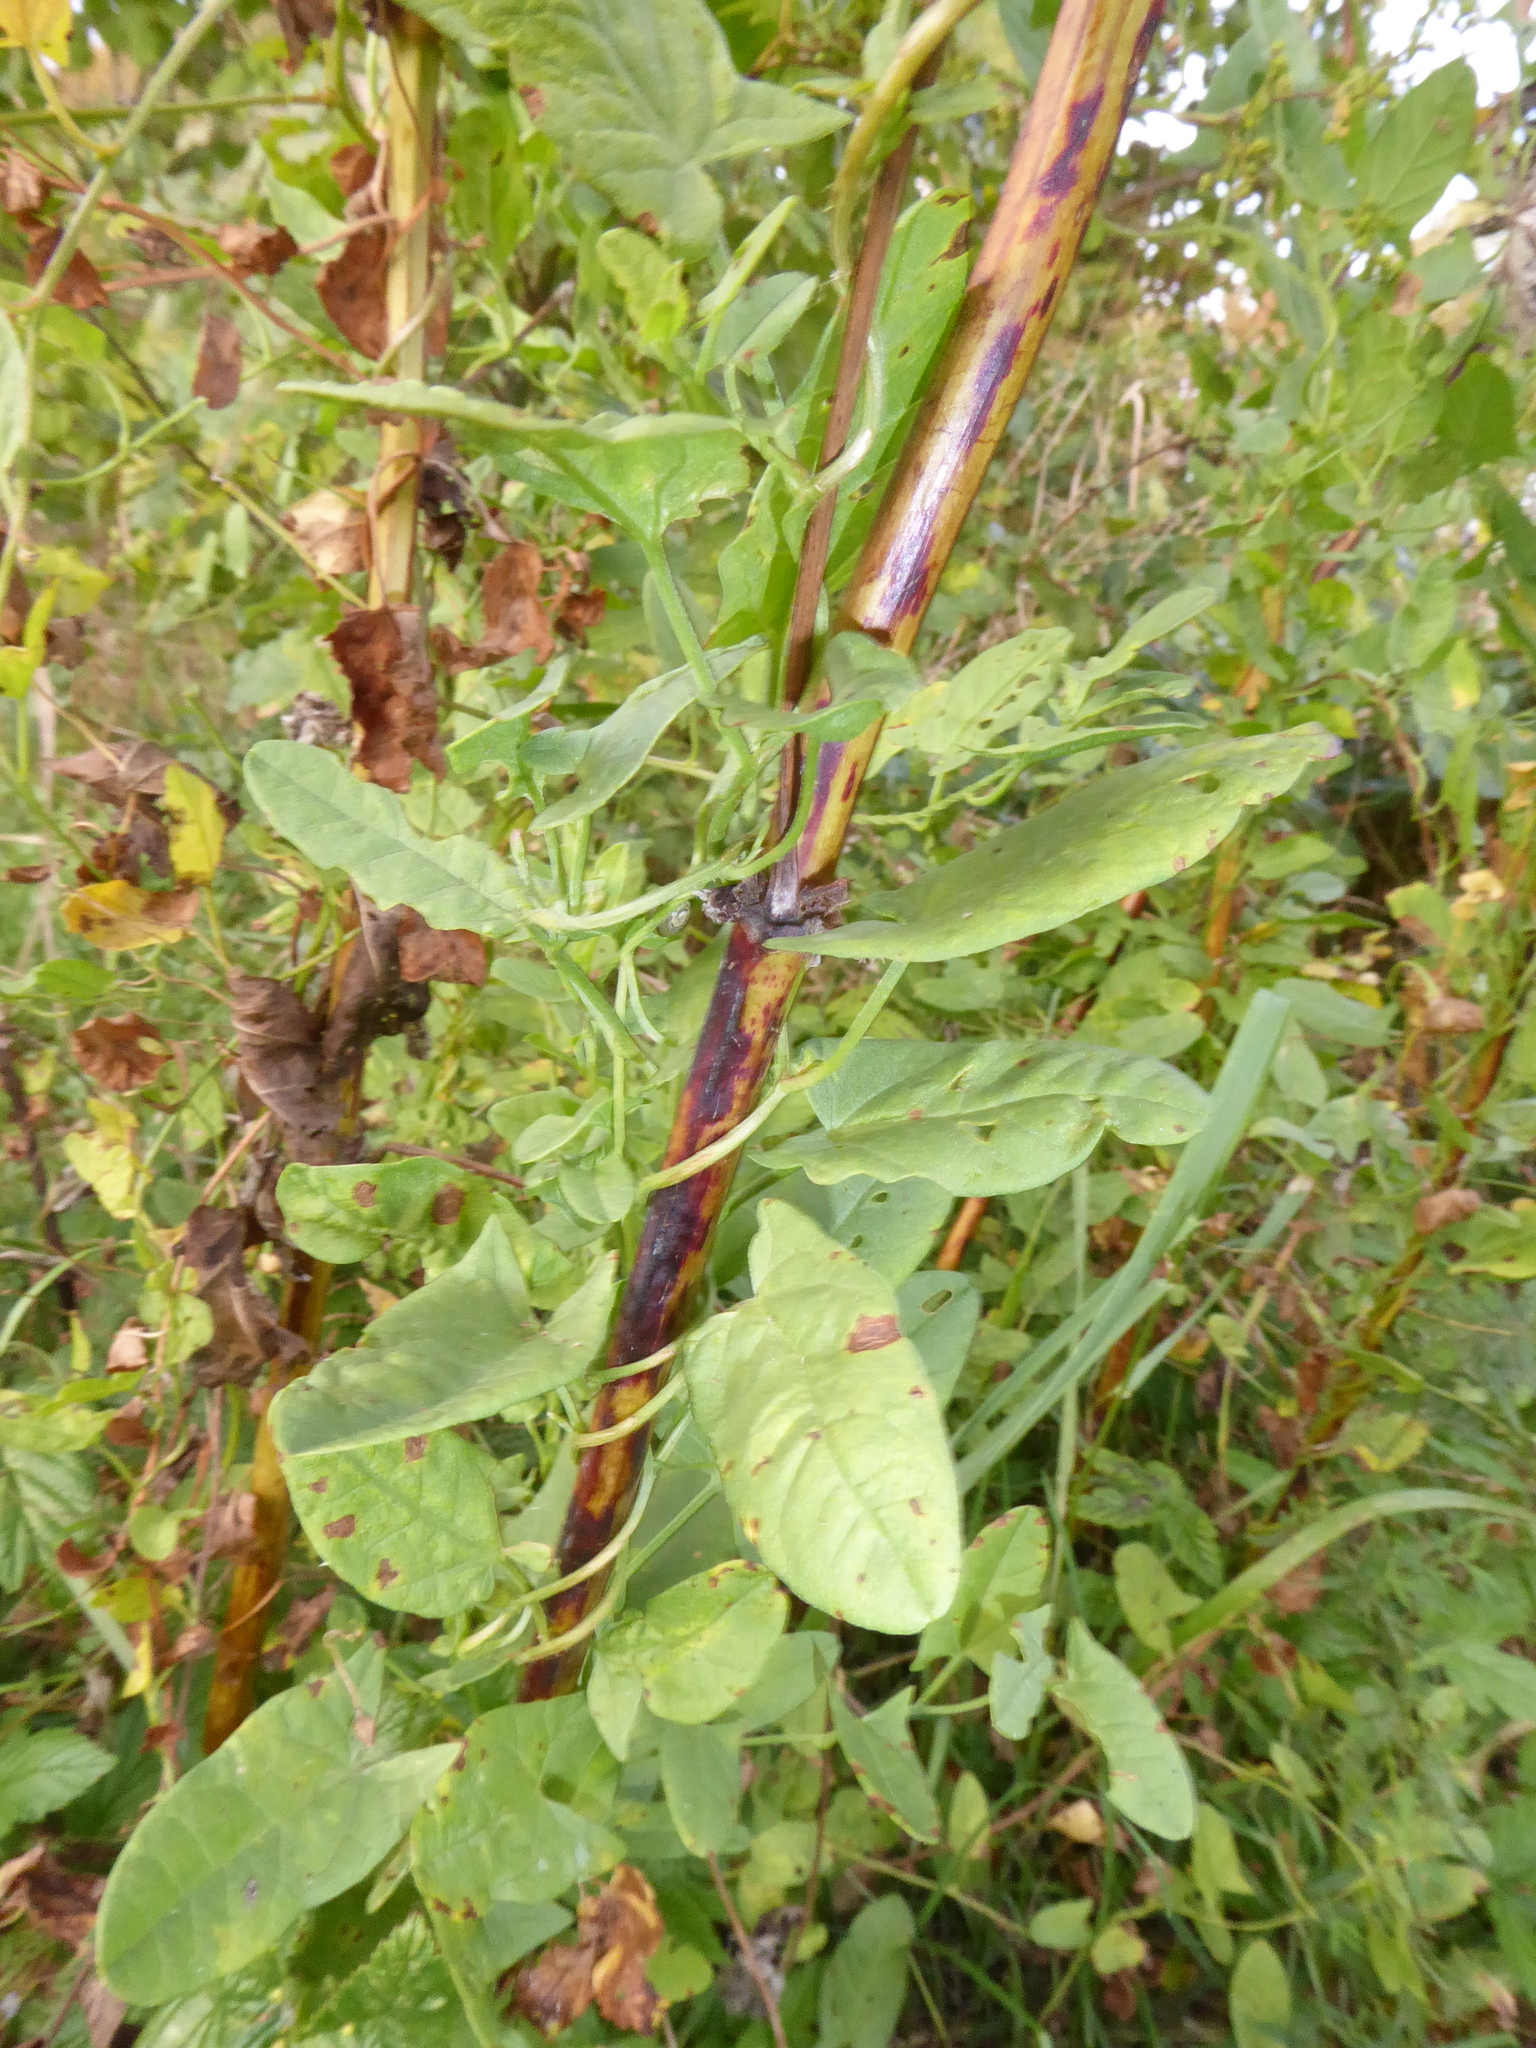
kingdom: Plantae
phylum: Tracheophyta
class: Magnoliopsida
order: Solanales
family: Convolvulaceae
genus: Convolvulus
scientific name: Convolvulus arvensis
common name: Field bindweed
